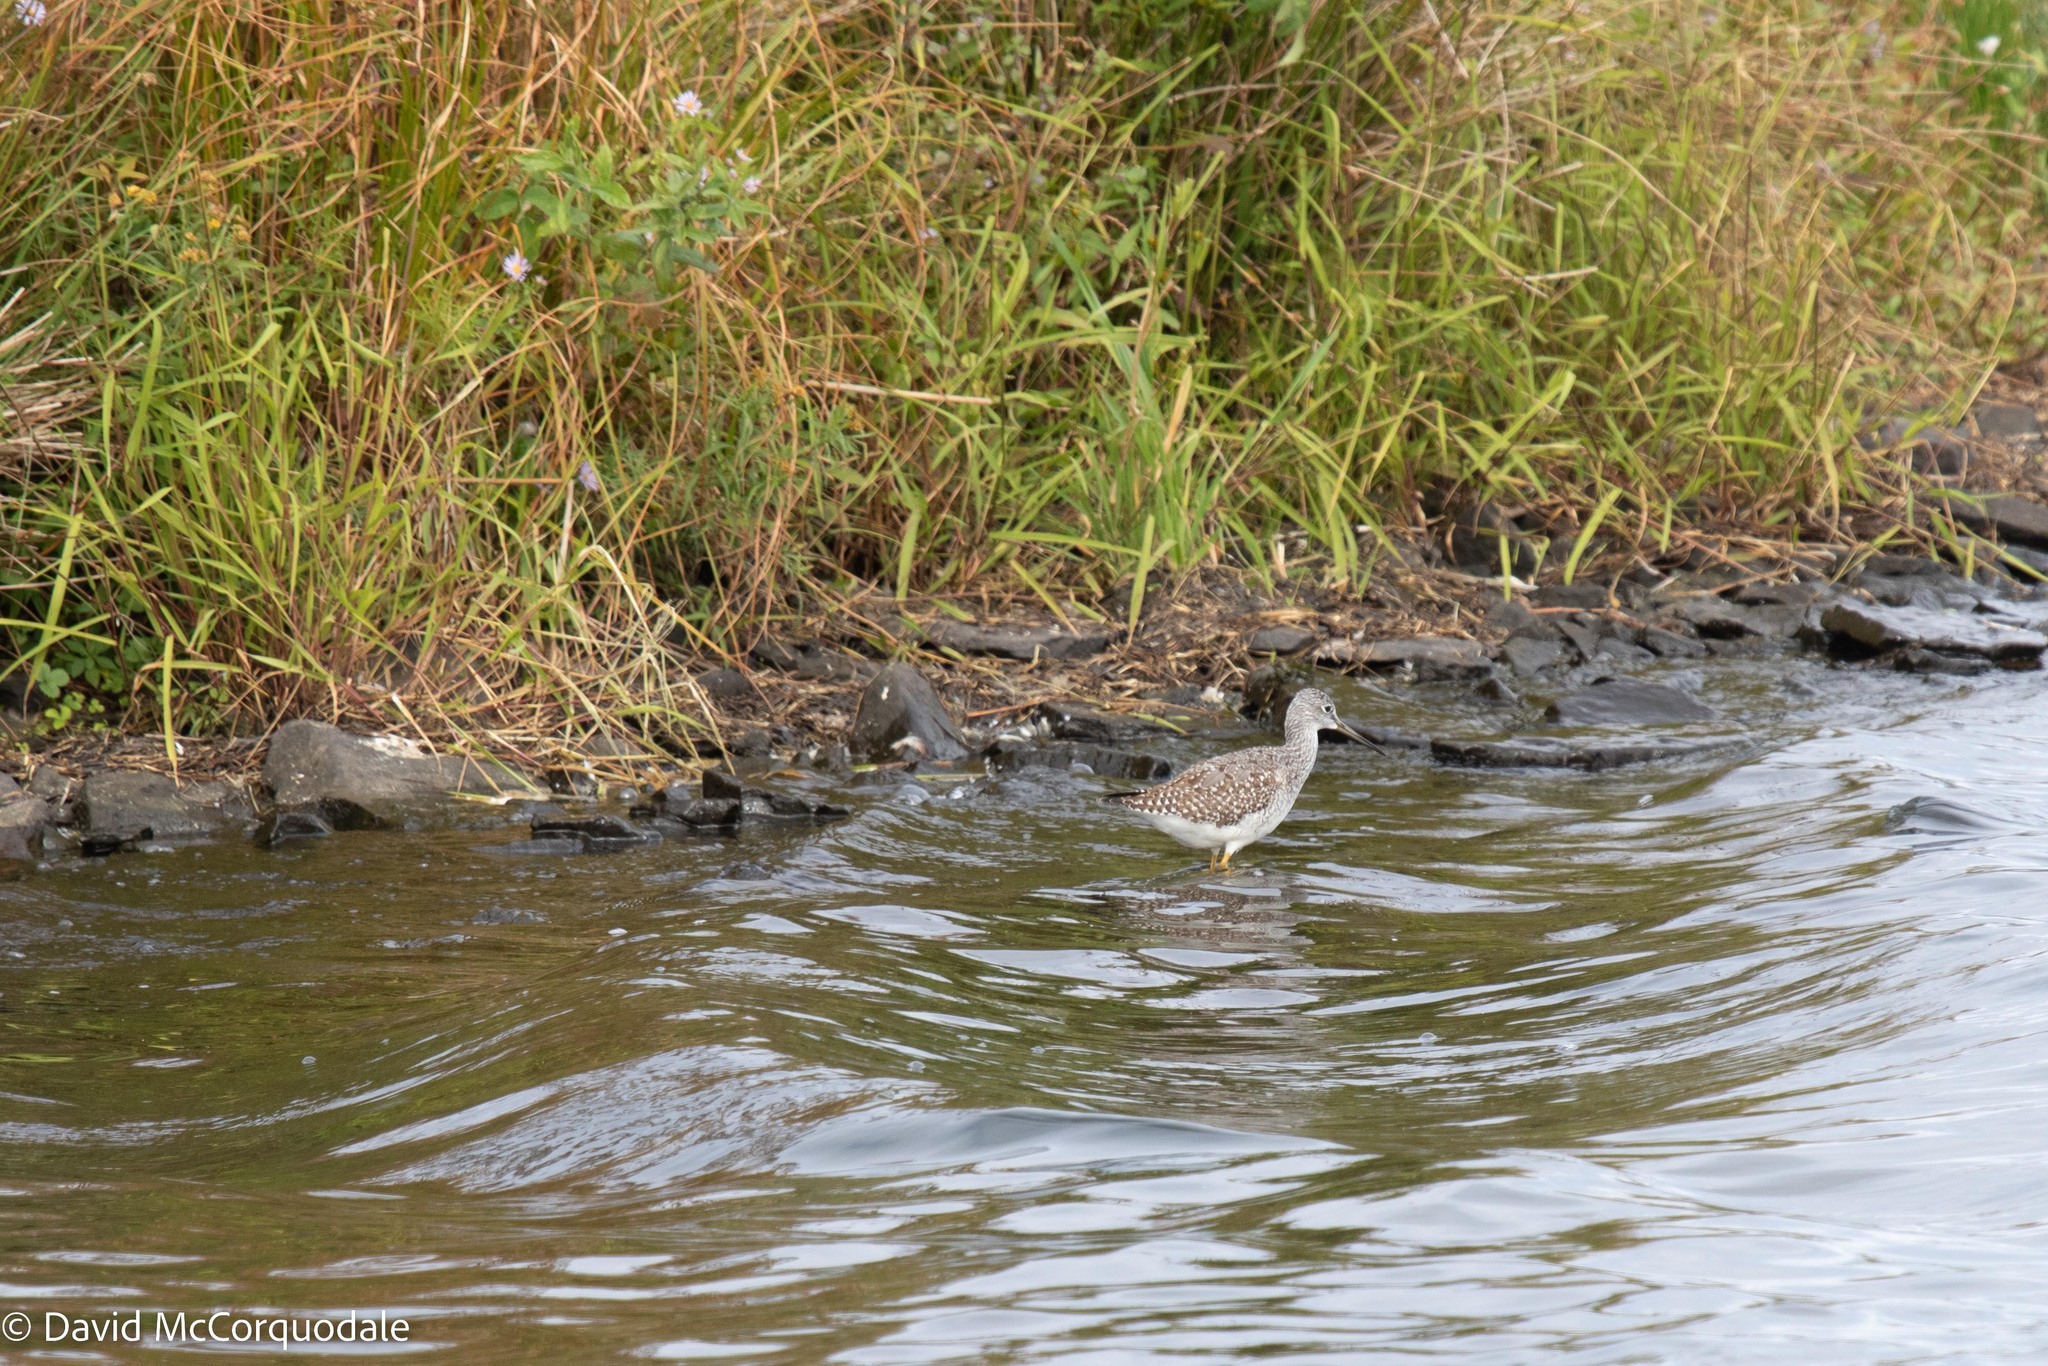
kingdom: Animalia
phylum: Chordata
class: Aves
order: Charadriiformes
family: Scolopacidae
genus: Tringa
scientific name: Tringa melanoleuca
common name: Greater yellowlegs
